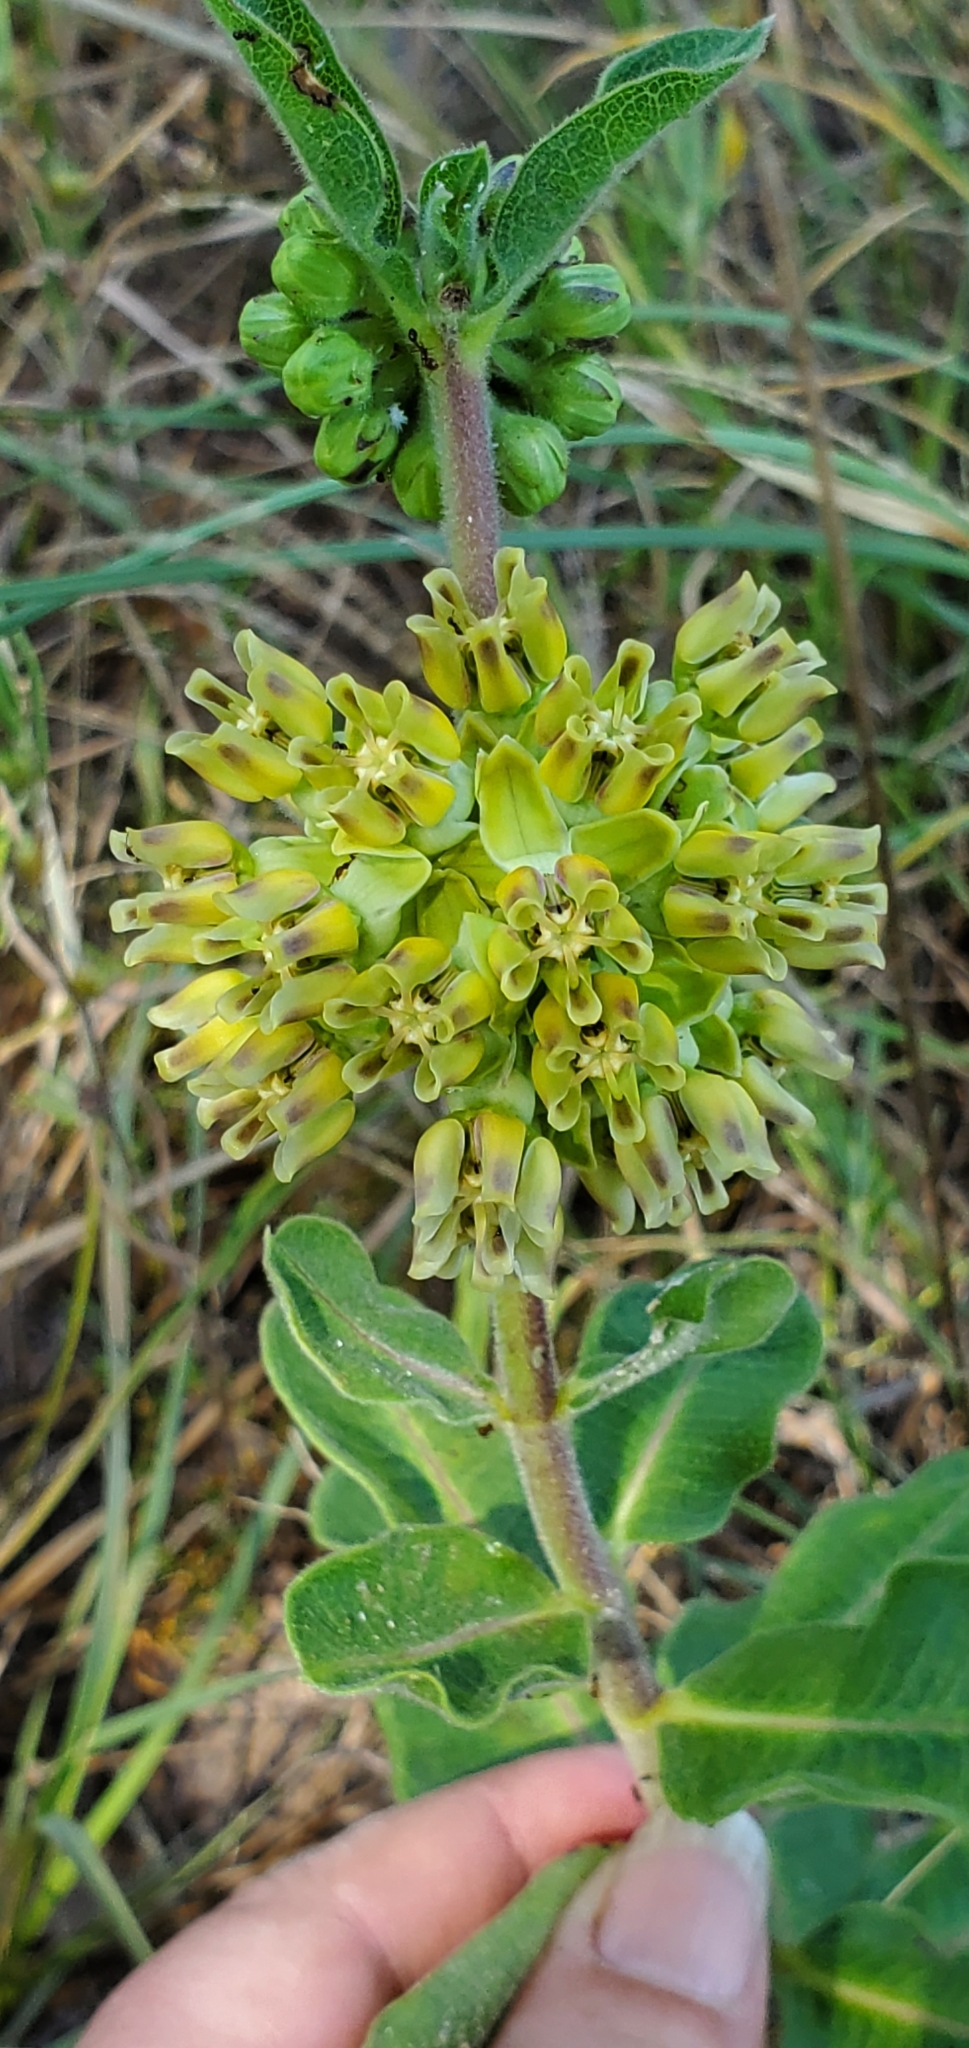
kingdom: Plantae
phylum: Tracheophyta
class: Magnoliopsida
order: Gentianales
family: Apocynaceae
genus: Asclepias
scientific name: Asclepias obovata
